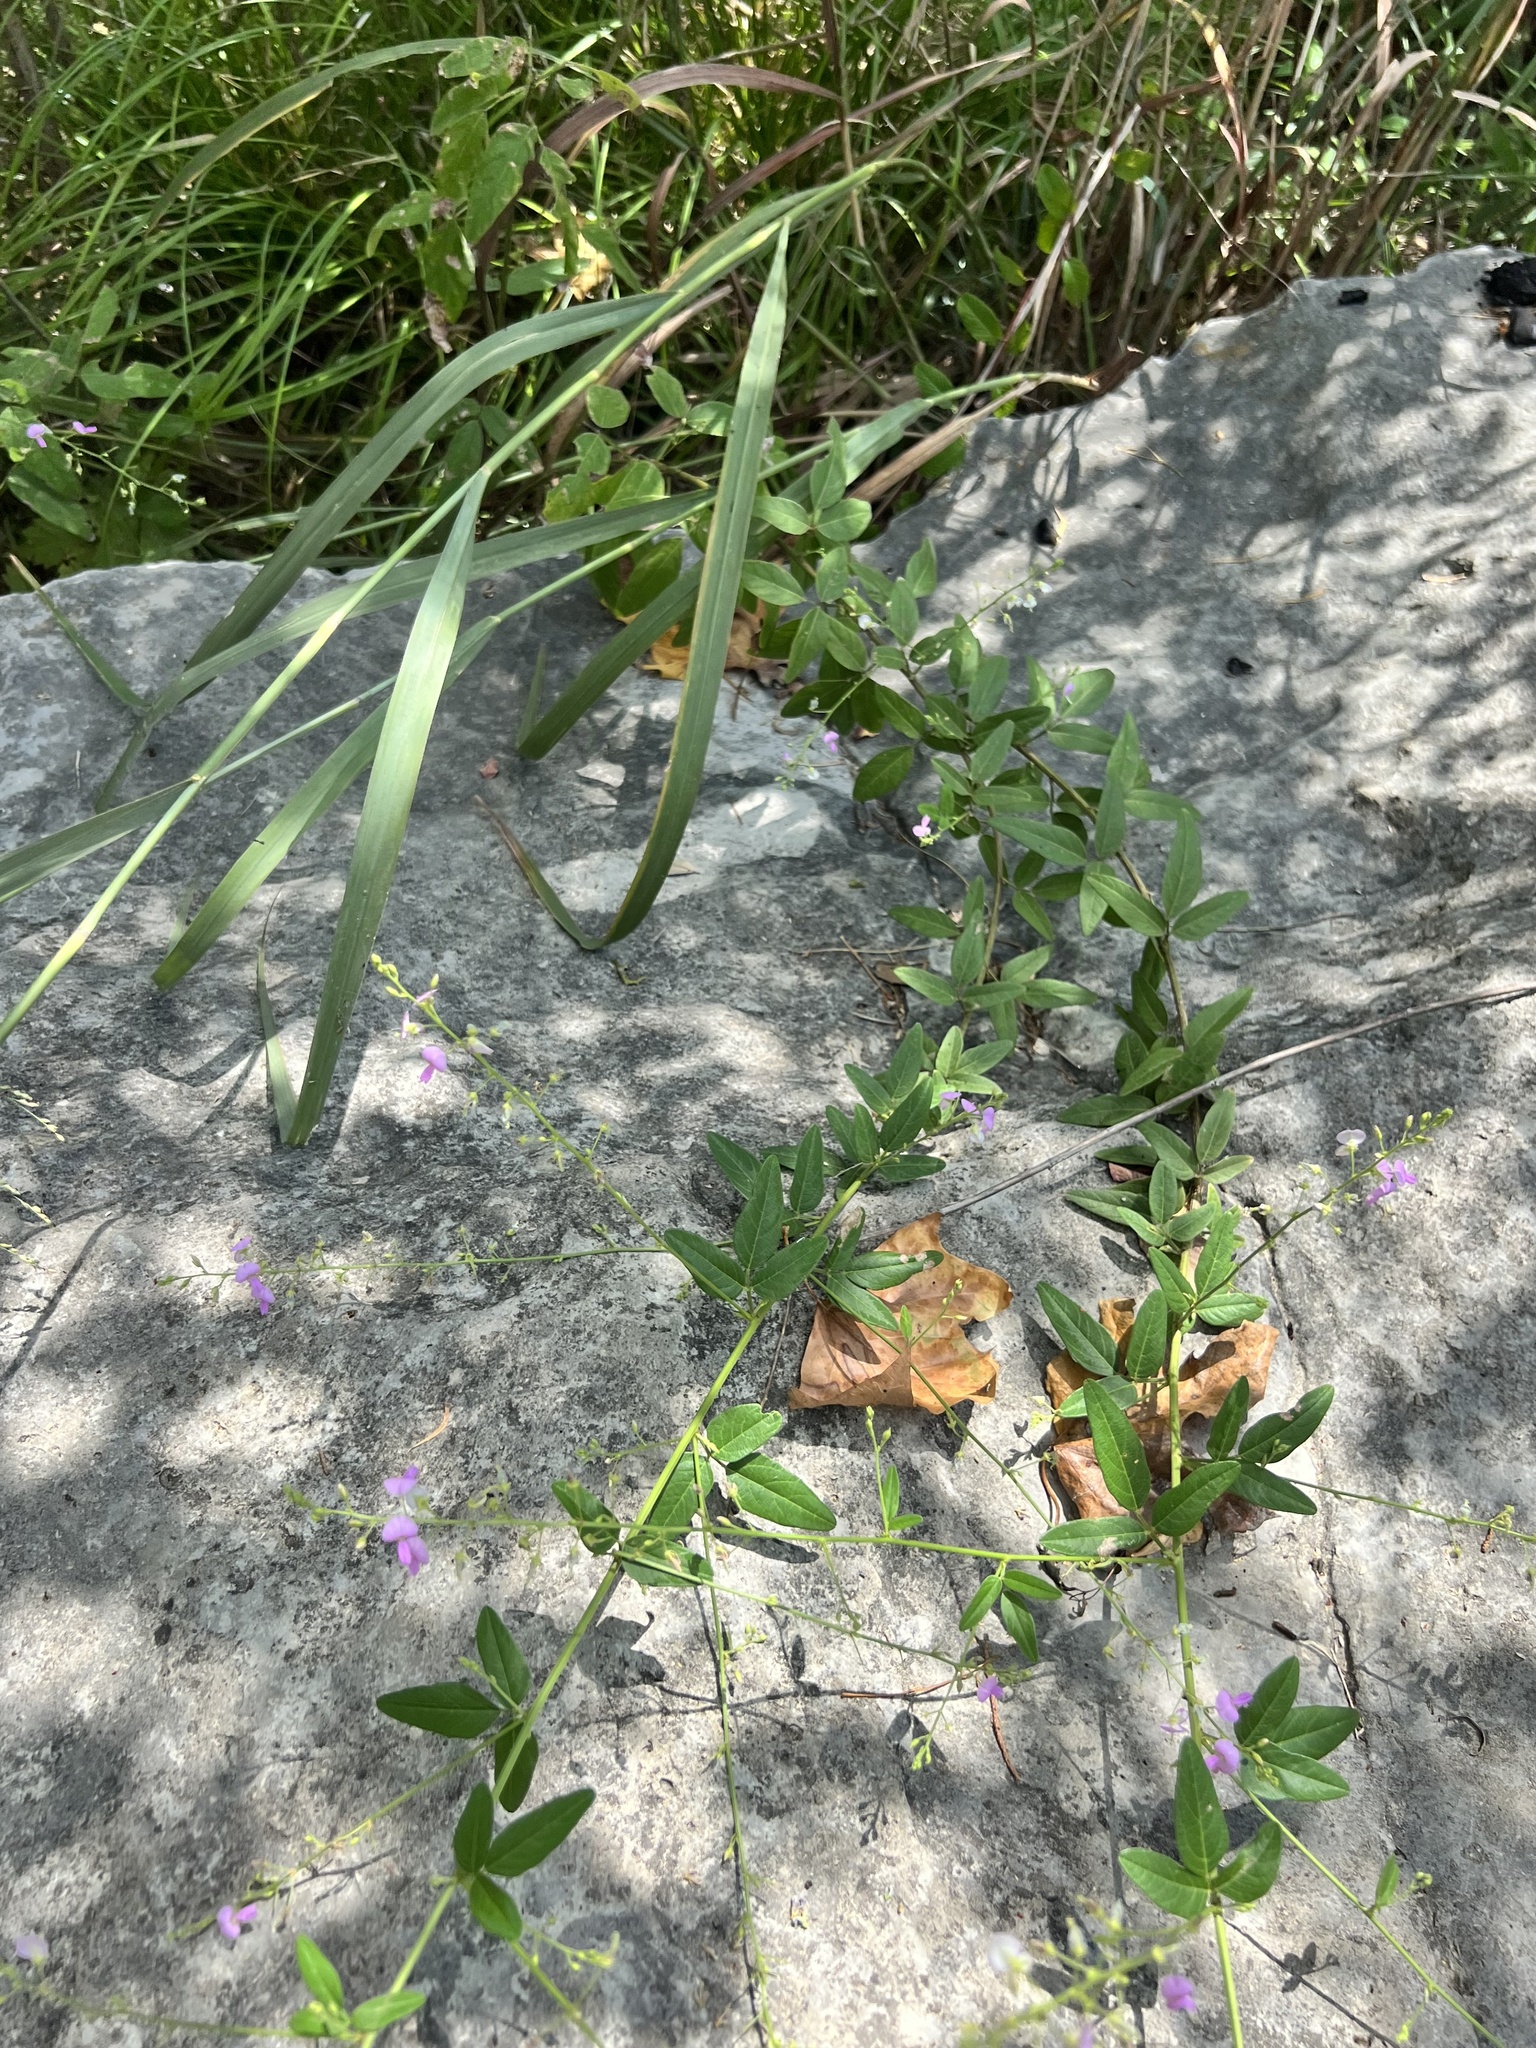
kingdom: Plantae
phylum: Tracheophyta
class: Magnoliopsida
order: Fabales
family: Fabaceae
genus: Desmodium
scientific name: Desmodium paniculatum
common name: Panicled tick-clover
